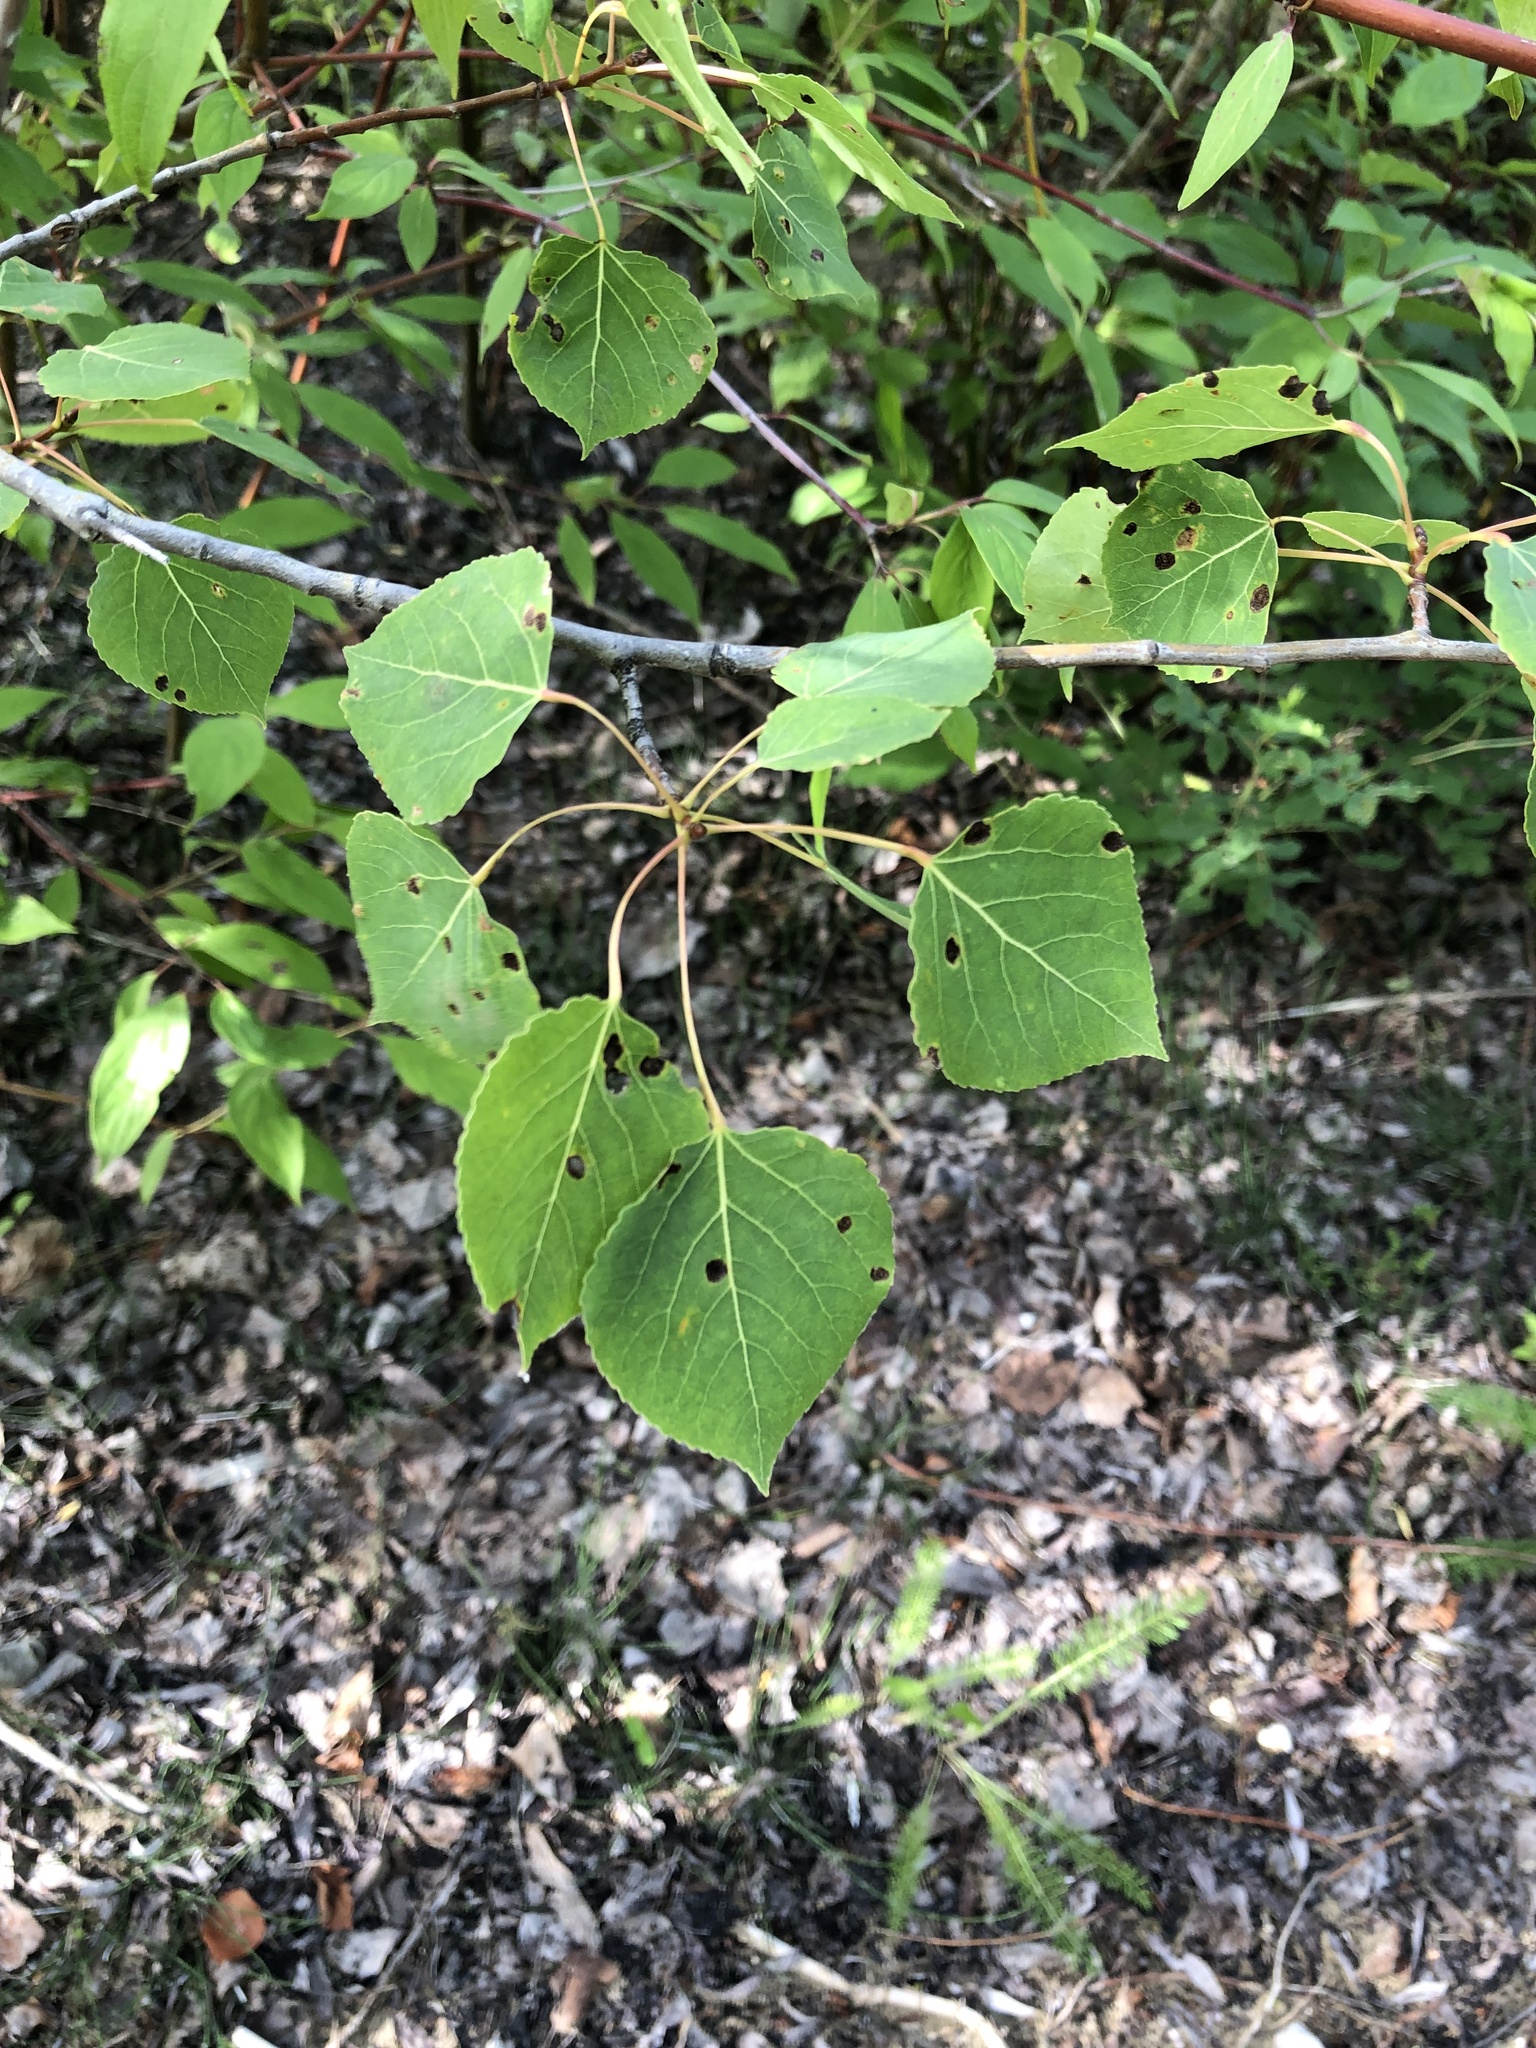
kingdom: Plantae
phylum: Tracheophyta
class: Magnoliopsida
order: Malpighiales
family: Salicaceae
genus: Populus
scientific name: Populus tremuloides
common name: Quaking aspen
